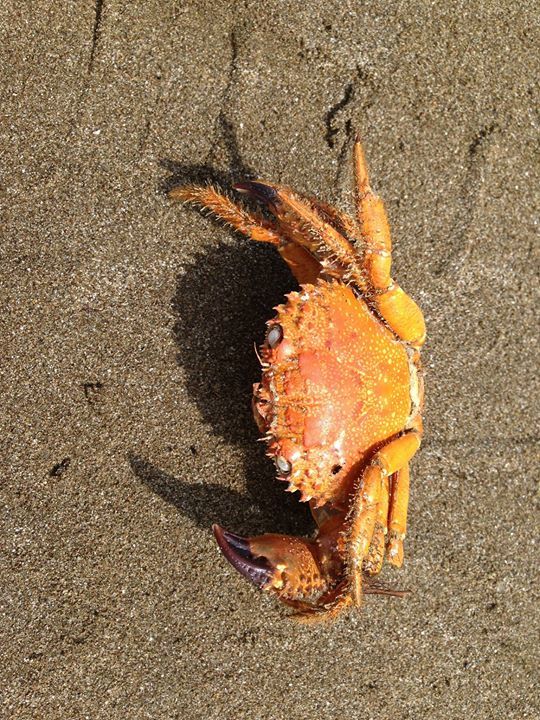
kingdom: Animalia
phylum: Arthropoda
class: Malacostraca
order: Decapoda
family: Eriphiidae
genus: Eriphia
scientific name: Eriphia verrucosa
